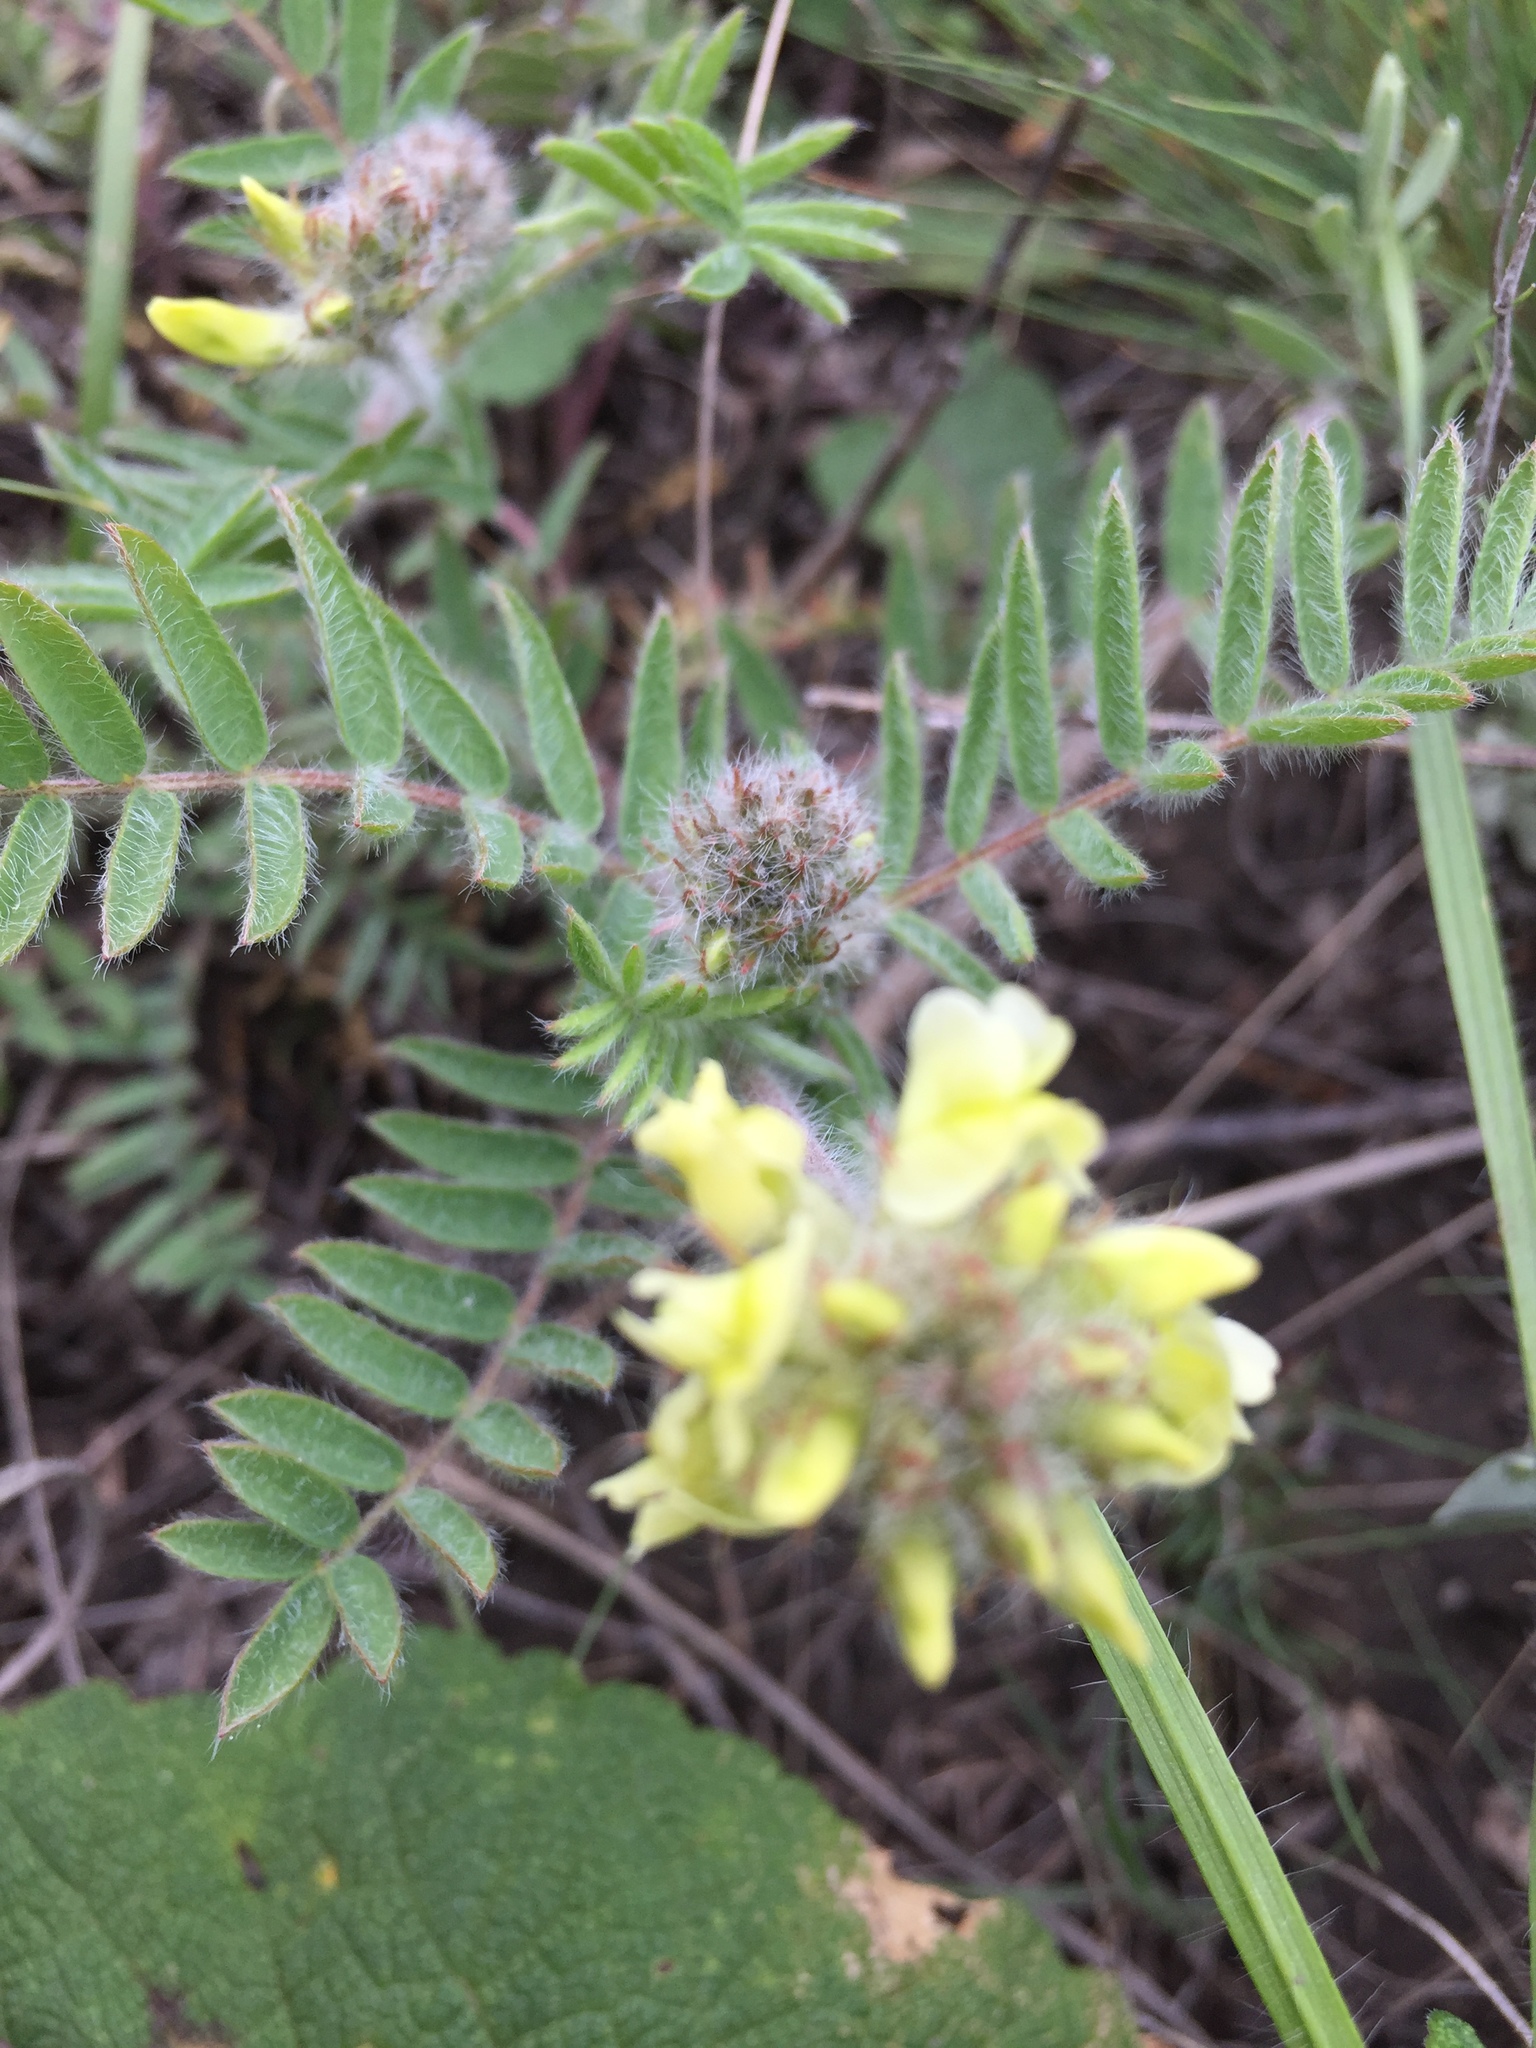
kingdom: Plantae
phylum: Tracheophyta
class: Magnoliopsida
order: Fabales
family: Fabaceae
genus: Oxytropis
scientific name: Oxytropis pilosa
